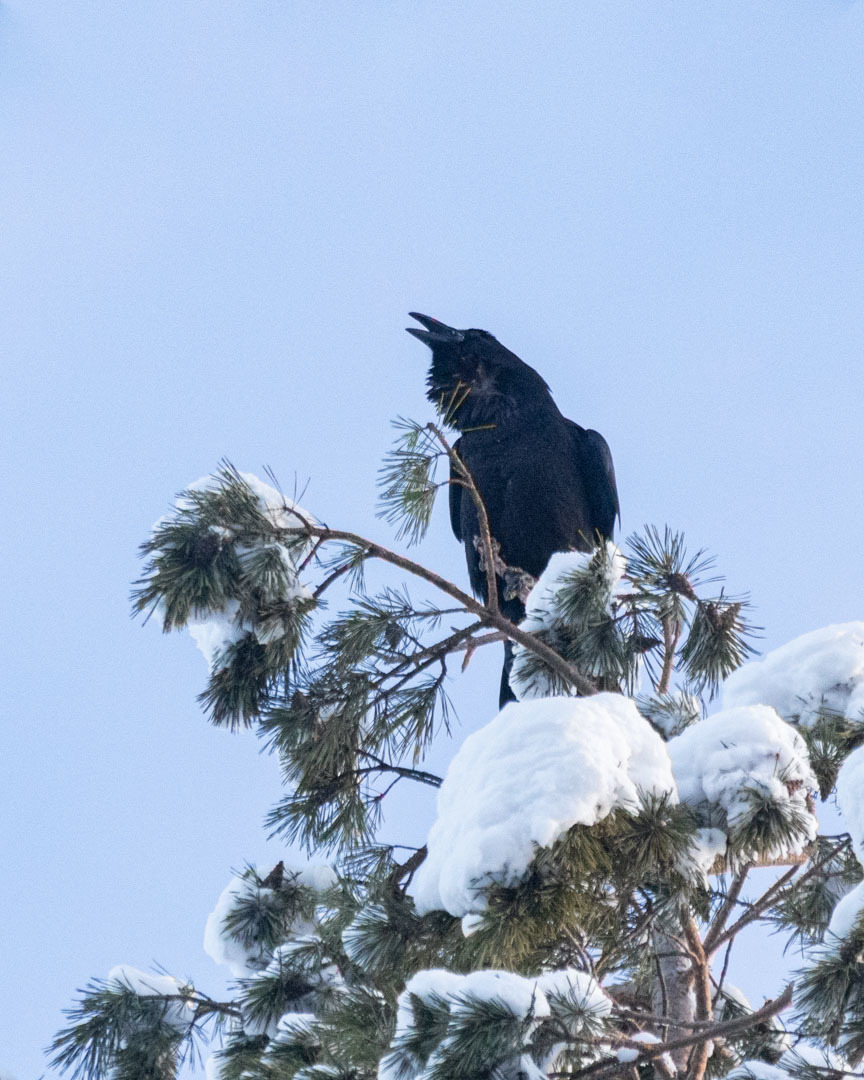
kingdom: Animalia
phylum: Chordata
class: Aves
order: Passeriformes
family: Corvidae
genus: Corvus
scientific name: Corvus corax
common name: Common raven
